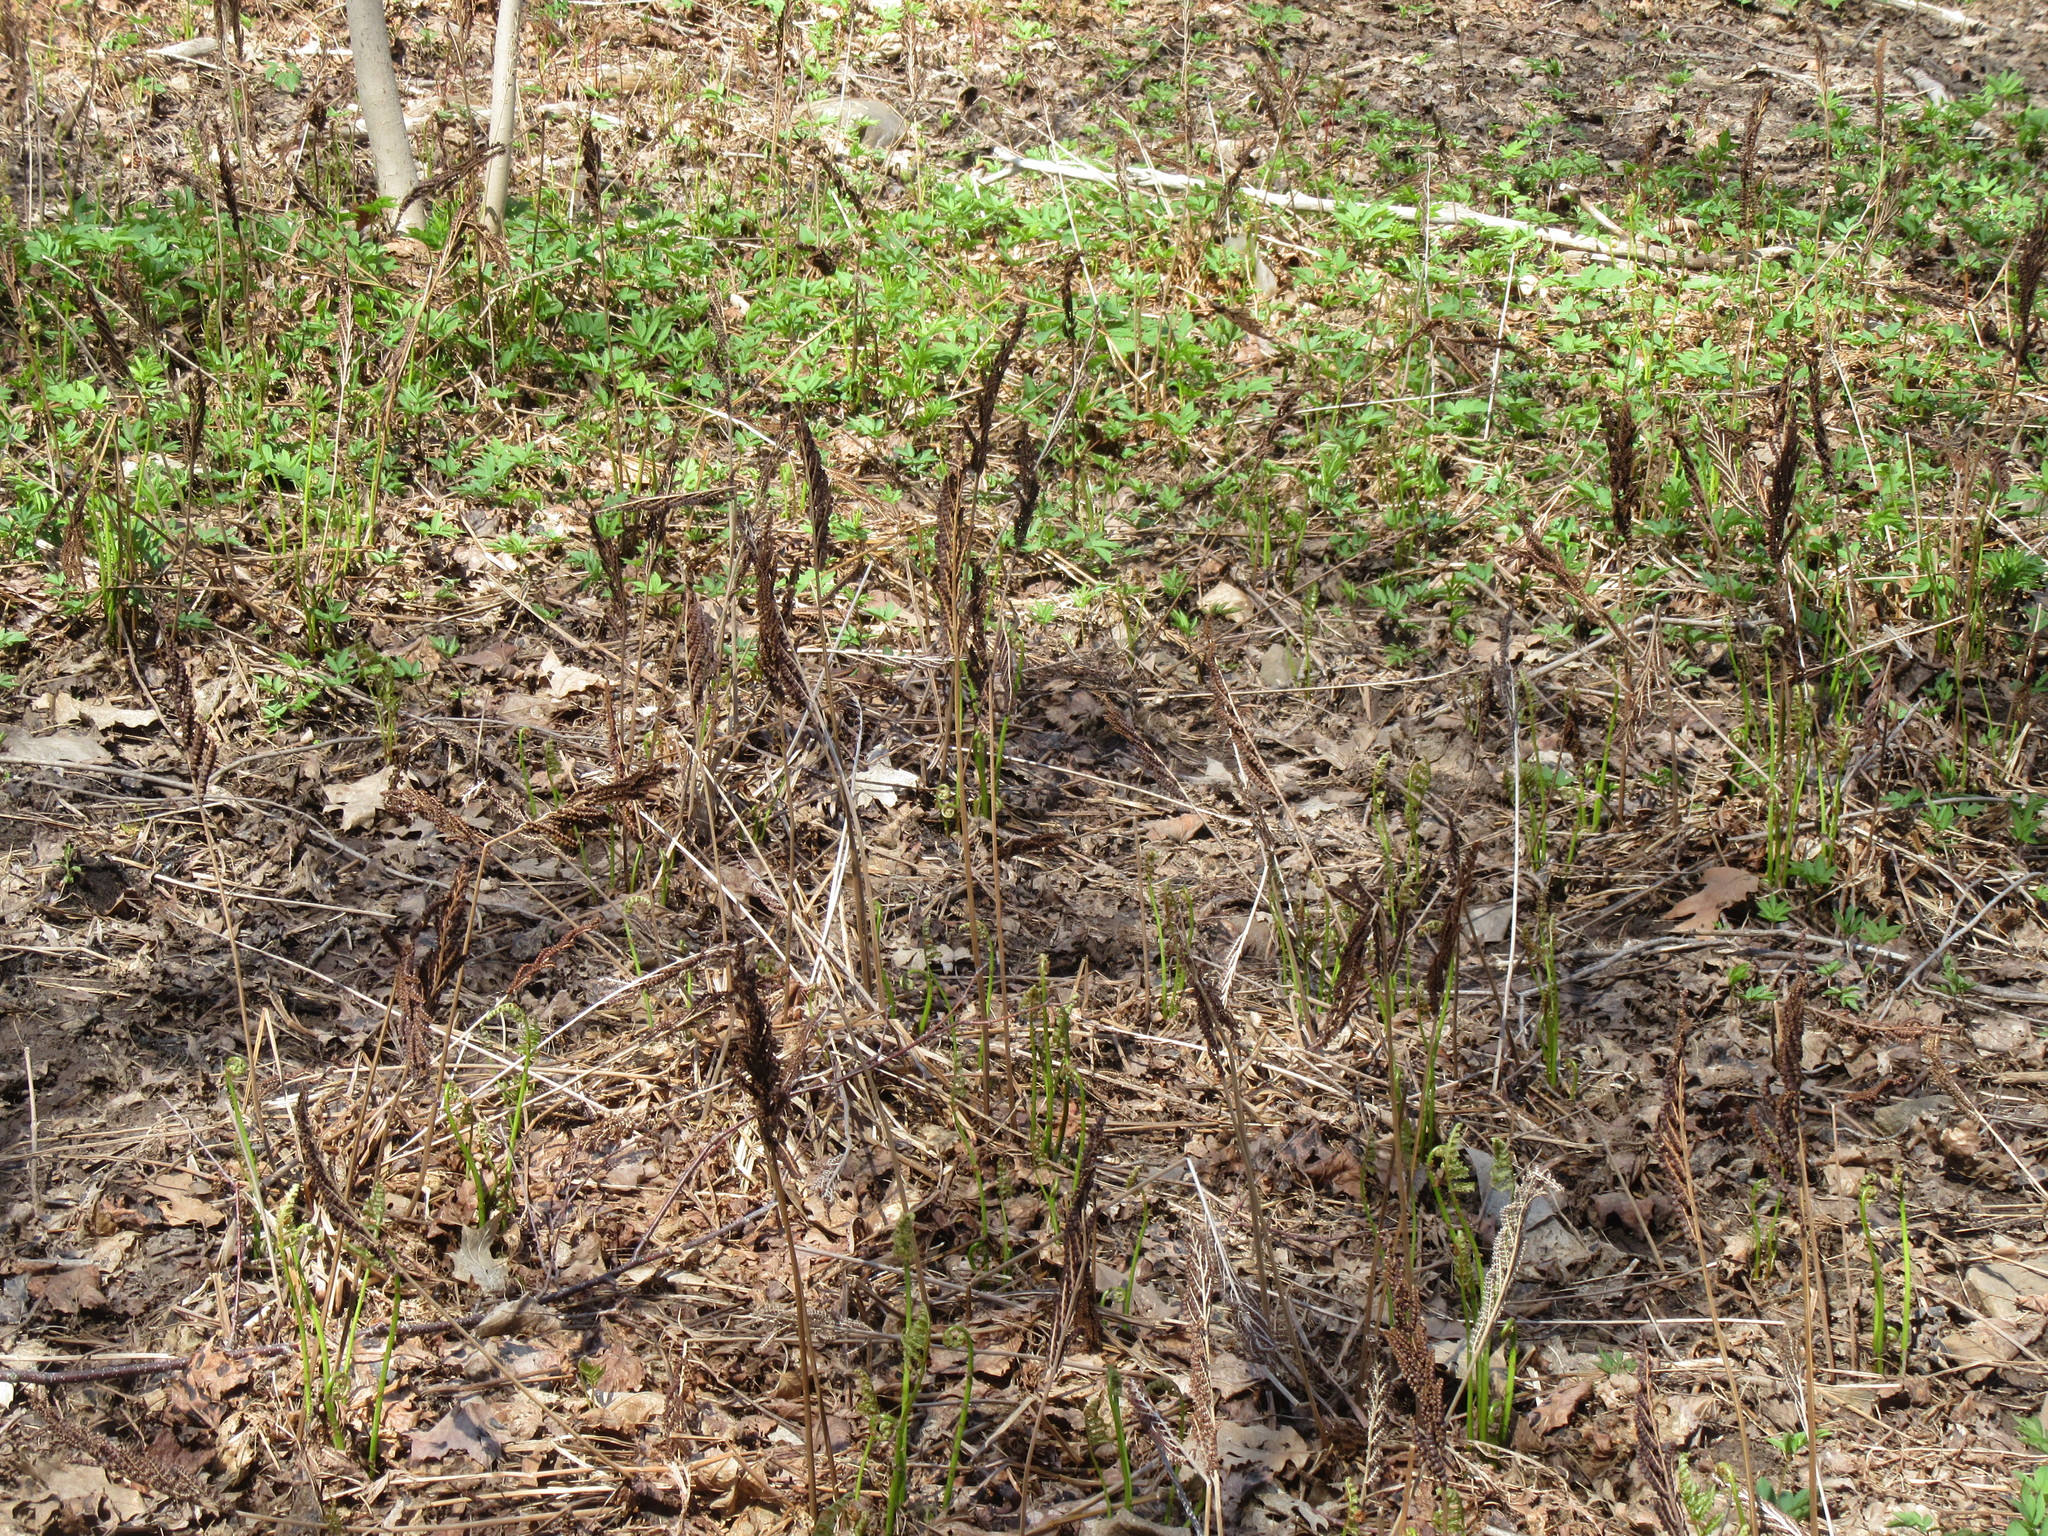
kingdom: Plantae
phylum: Tracheophyta
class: Polypodiopsida
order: Polypodiales
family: Onocleaceae
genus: Onoclea
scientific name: Onoclea sensibilis
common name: Sensitive fern
